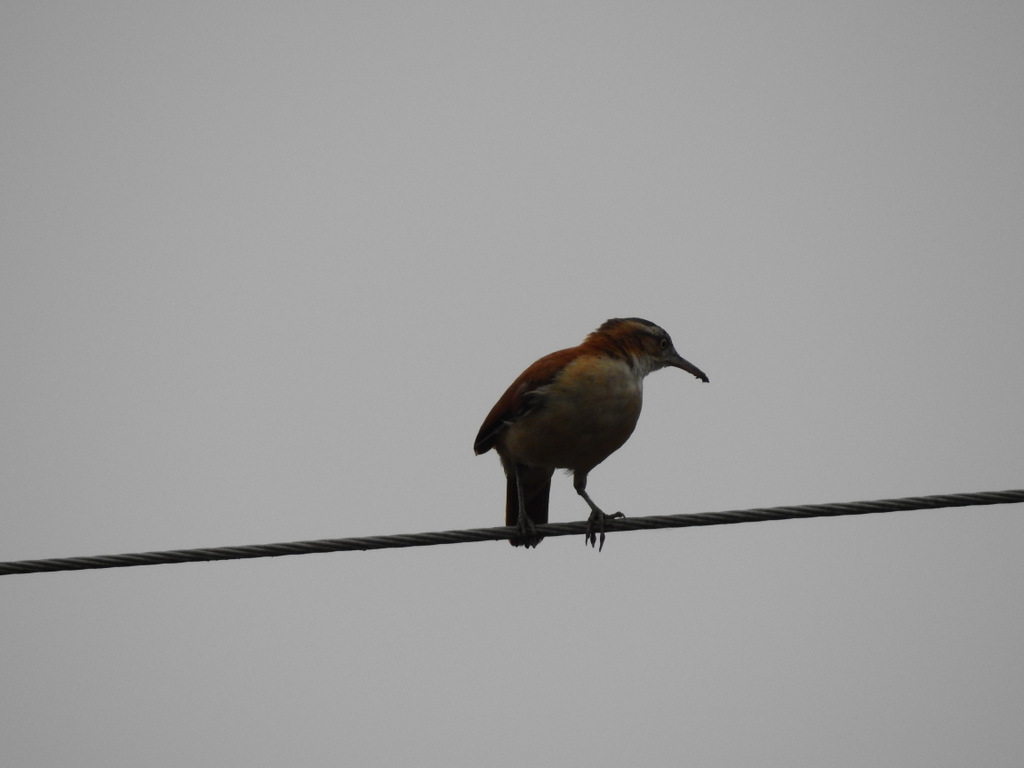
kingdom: Animalia
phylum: Chordata
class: Aves
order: Passeriformes
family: Furnariidae
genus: Furnarius
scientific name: Furnarius leucopus
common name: Pale-legged hornero
